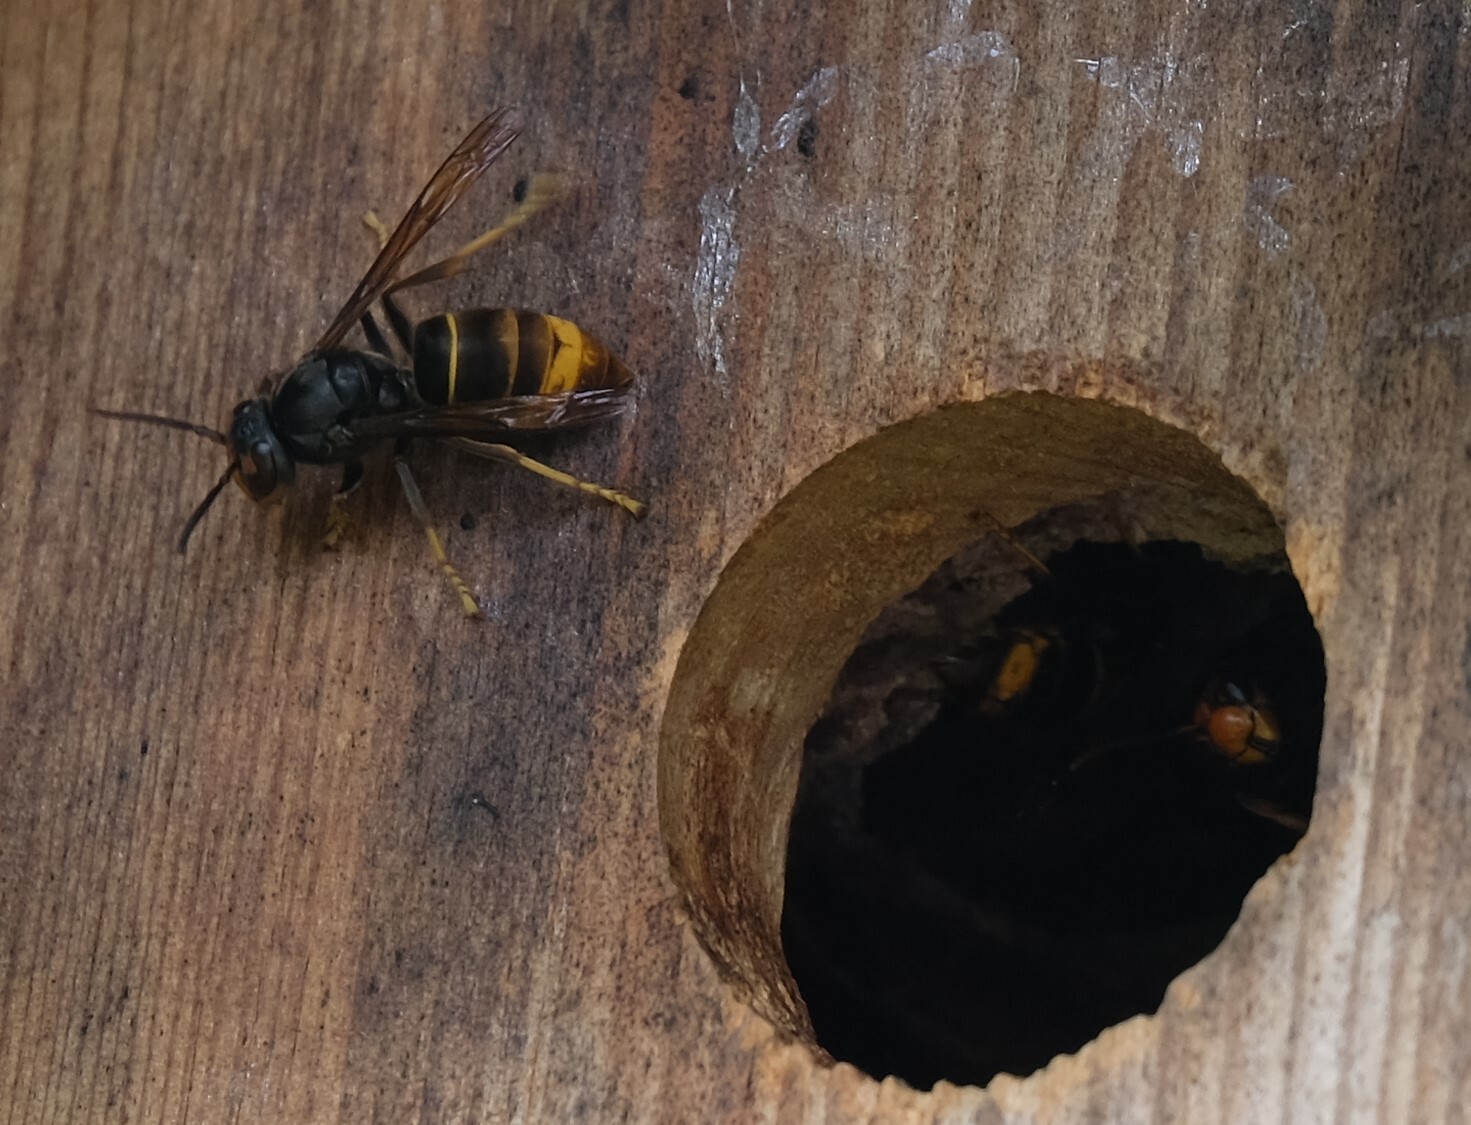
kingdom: Animalia
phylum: Arthropoda
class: Insecta
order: Hymenoptera
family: Vespidae
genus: Vespa
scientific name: Vespa velutina
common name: Asian hornet
